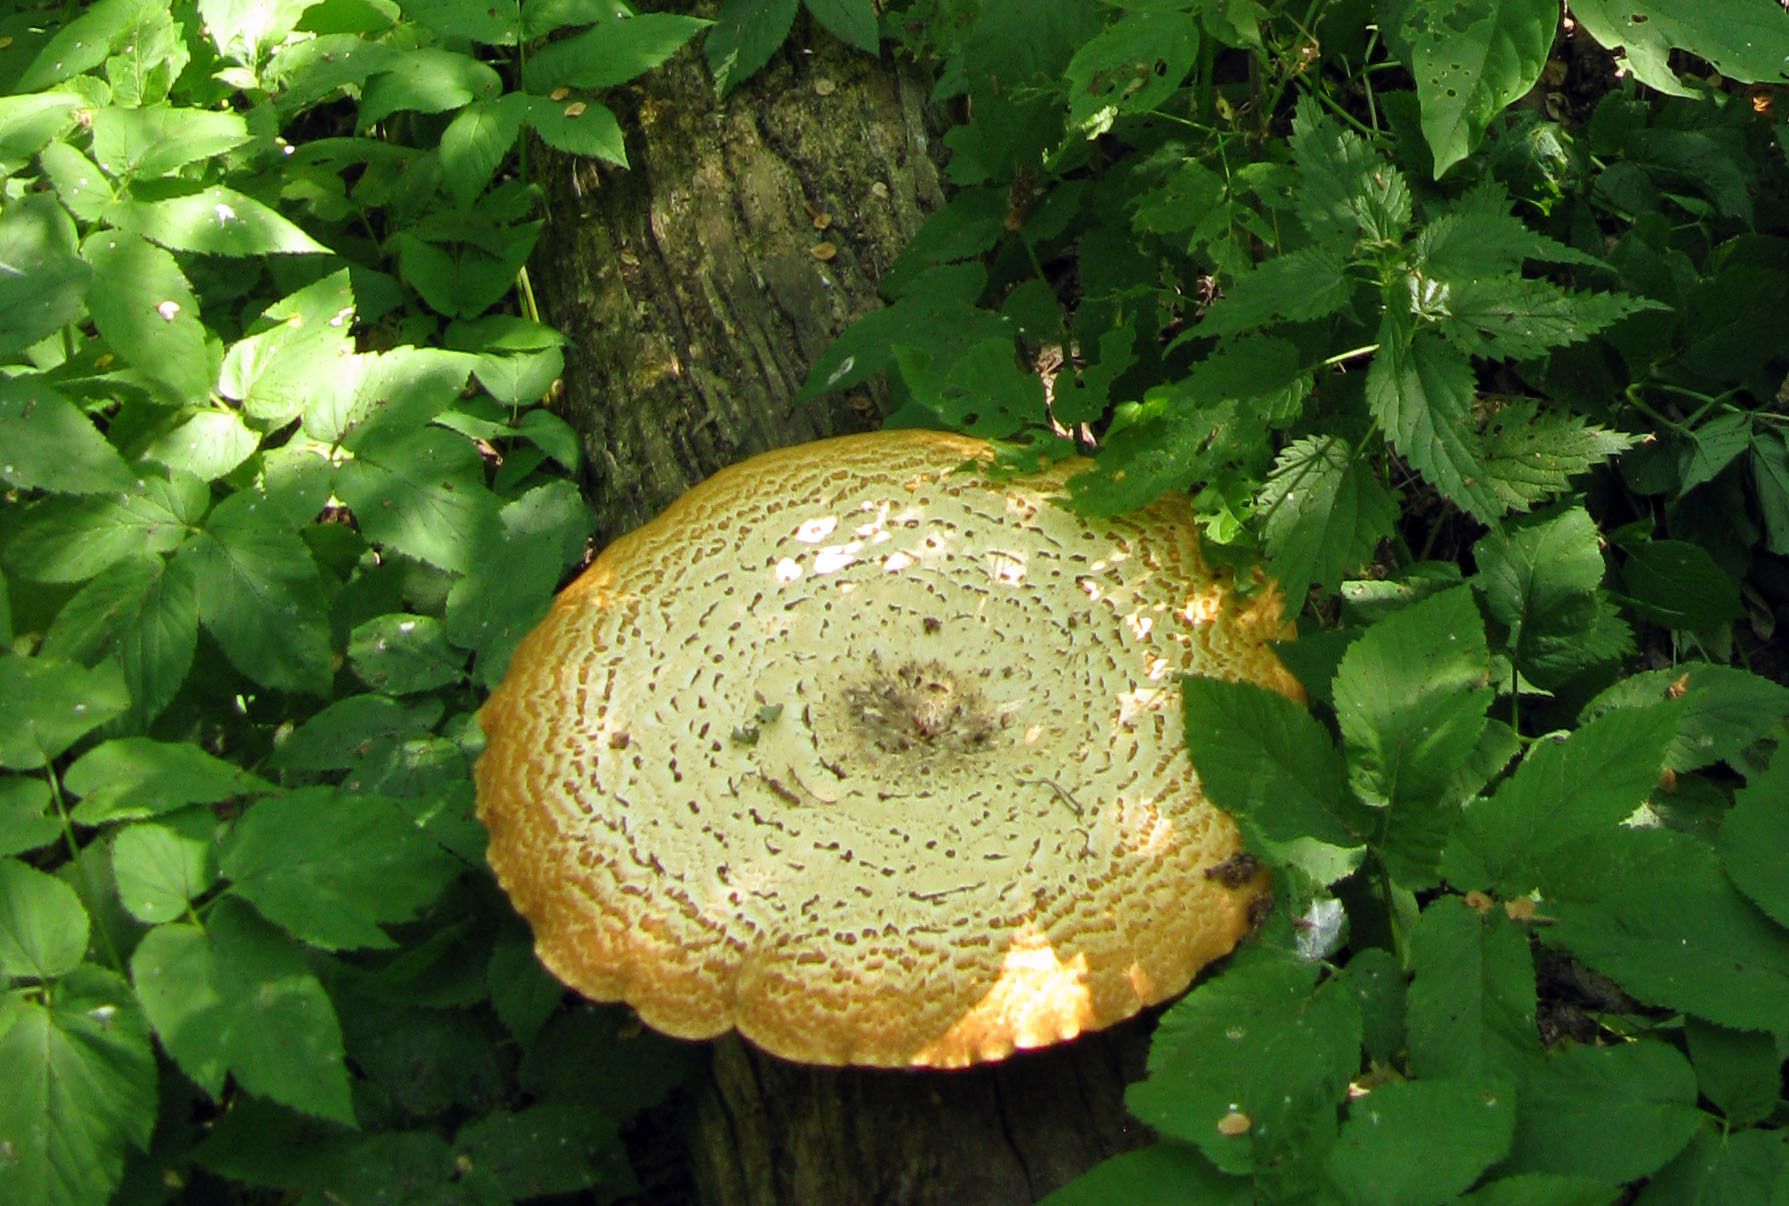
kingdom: Fungi
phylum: Basidiomycota
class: Agaricomycetes
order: Polyporales
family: Polyporaceae
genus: Cerioporus
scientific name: Cerioporus squamosus
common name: Dryad's saddle
